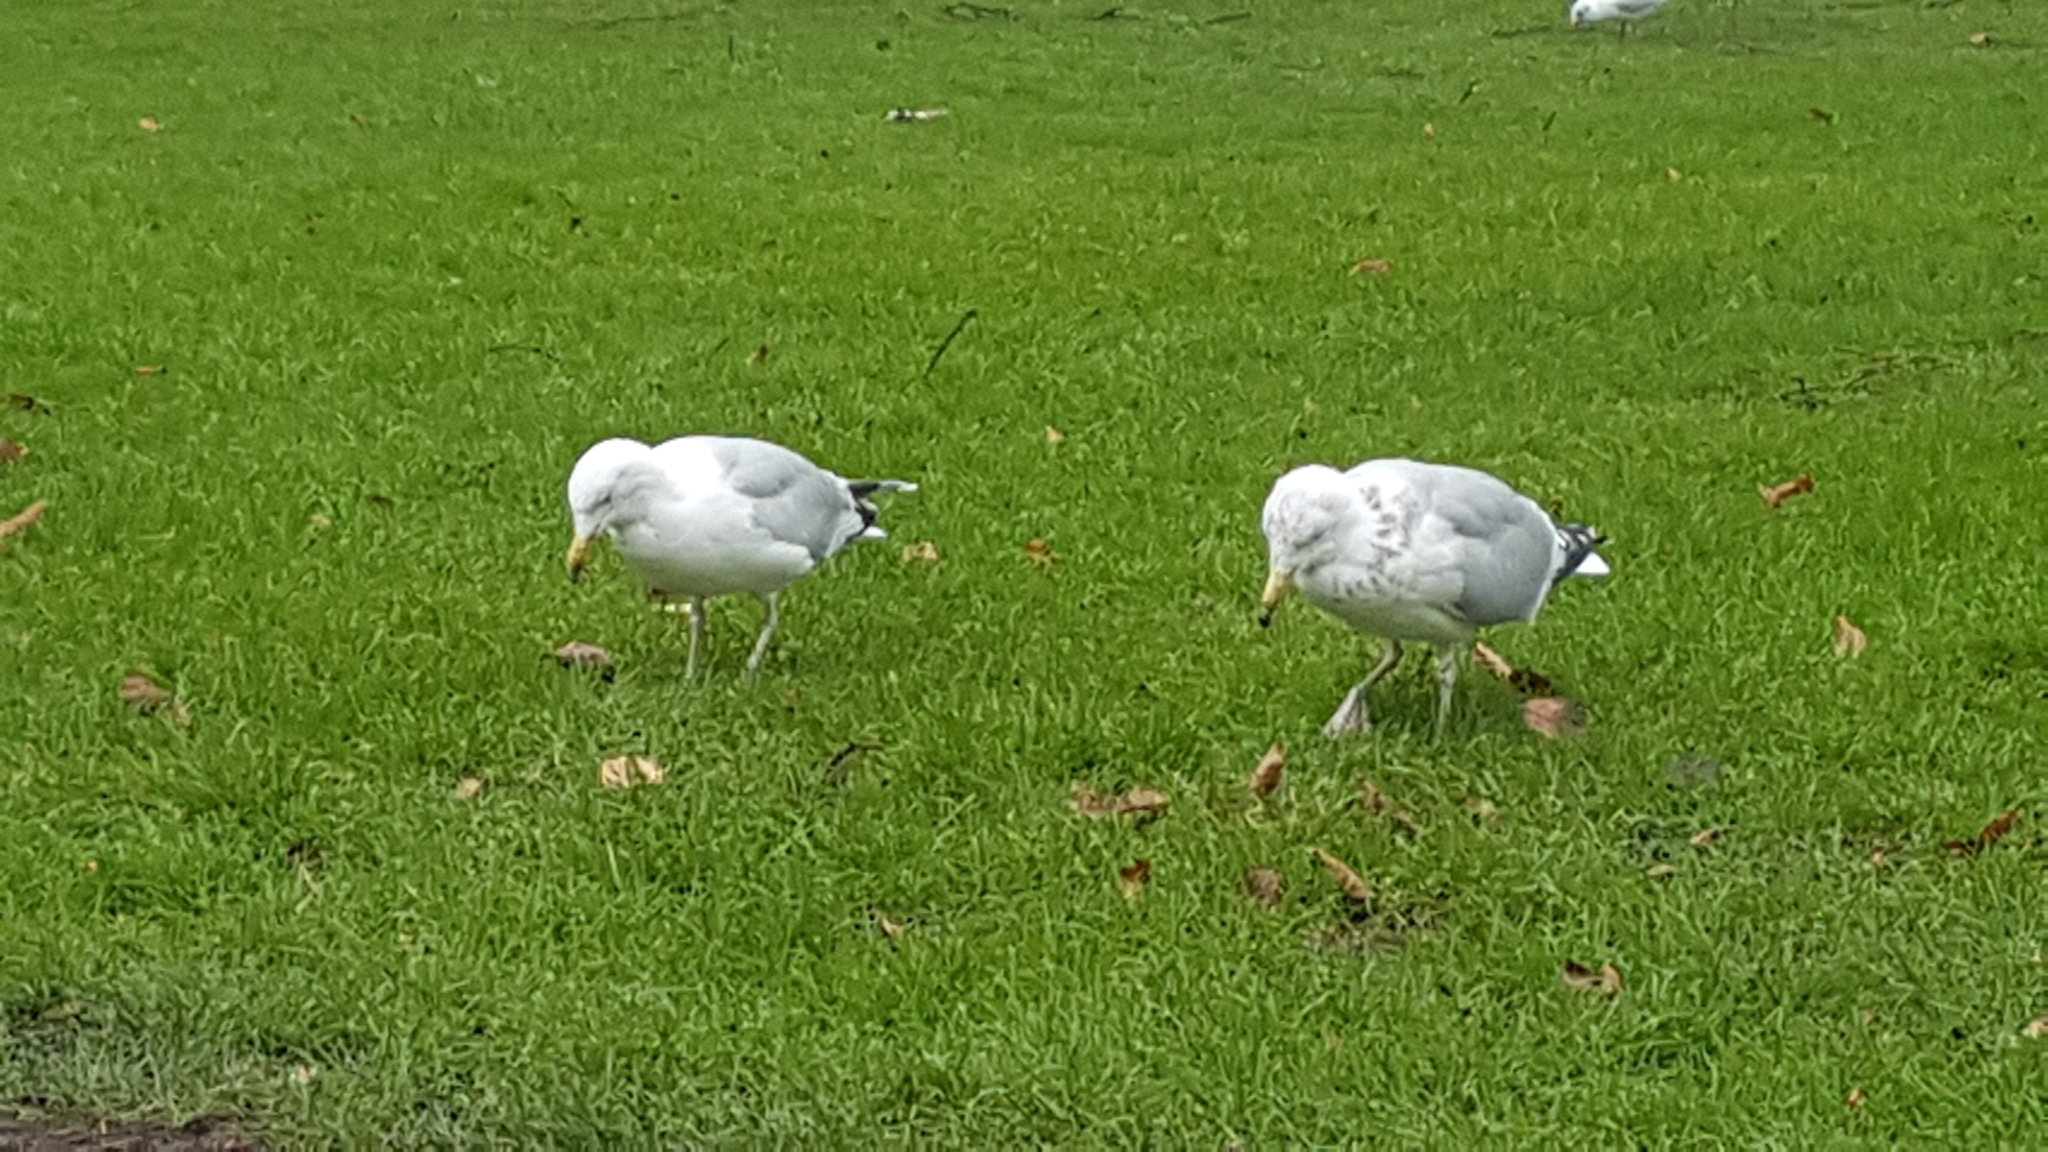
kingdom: Animalia
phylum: Chordata
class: Aves
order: Charadriiformes
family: Laridae
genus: Larus
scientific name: Larus argentatus
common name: Herring gull
